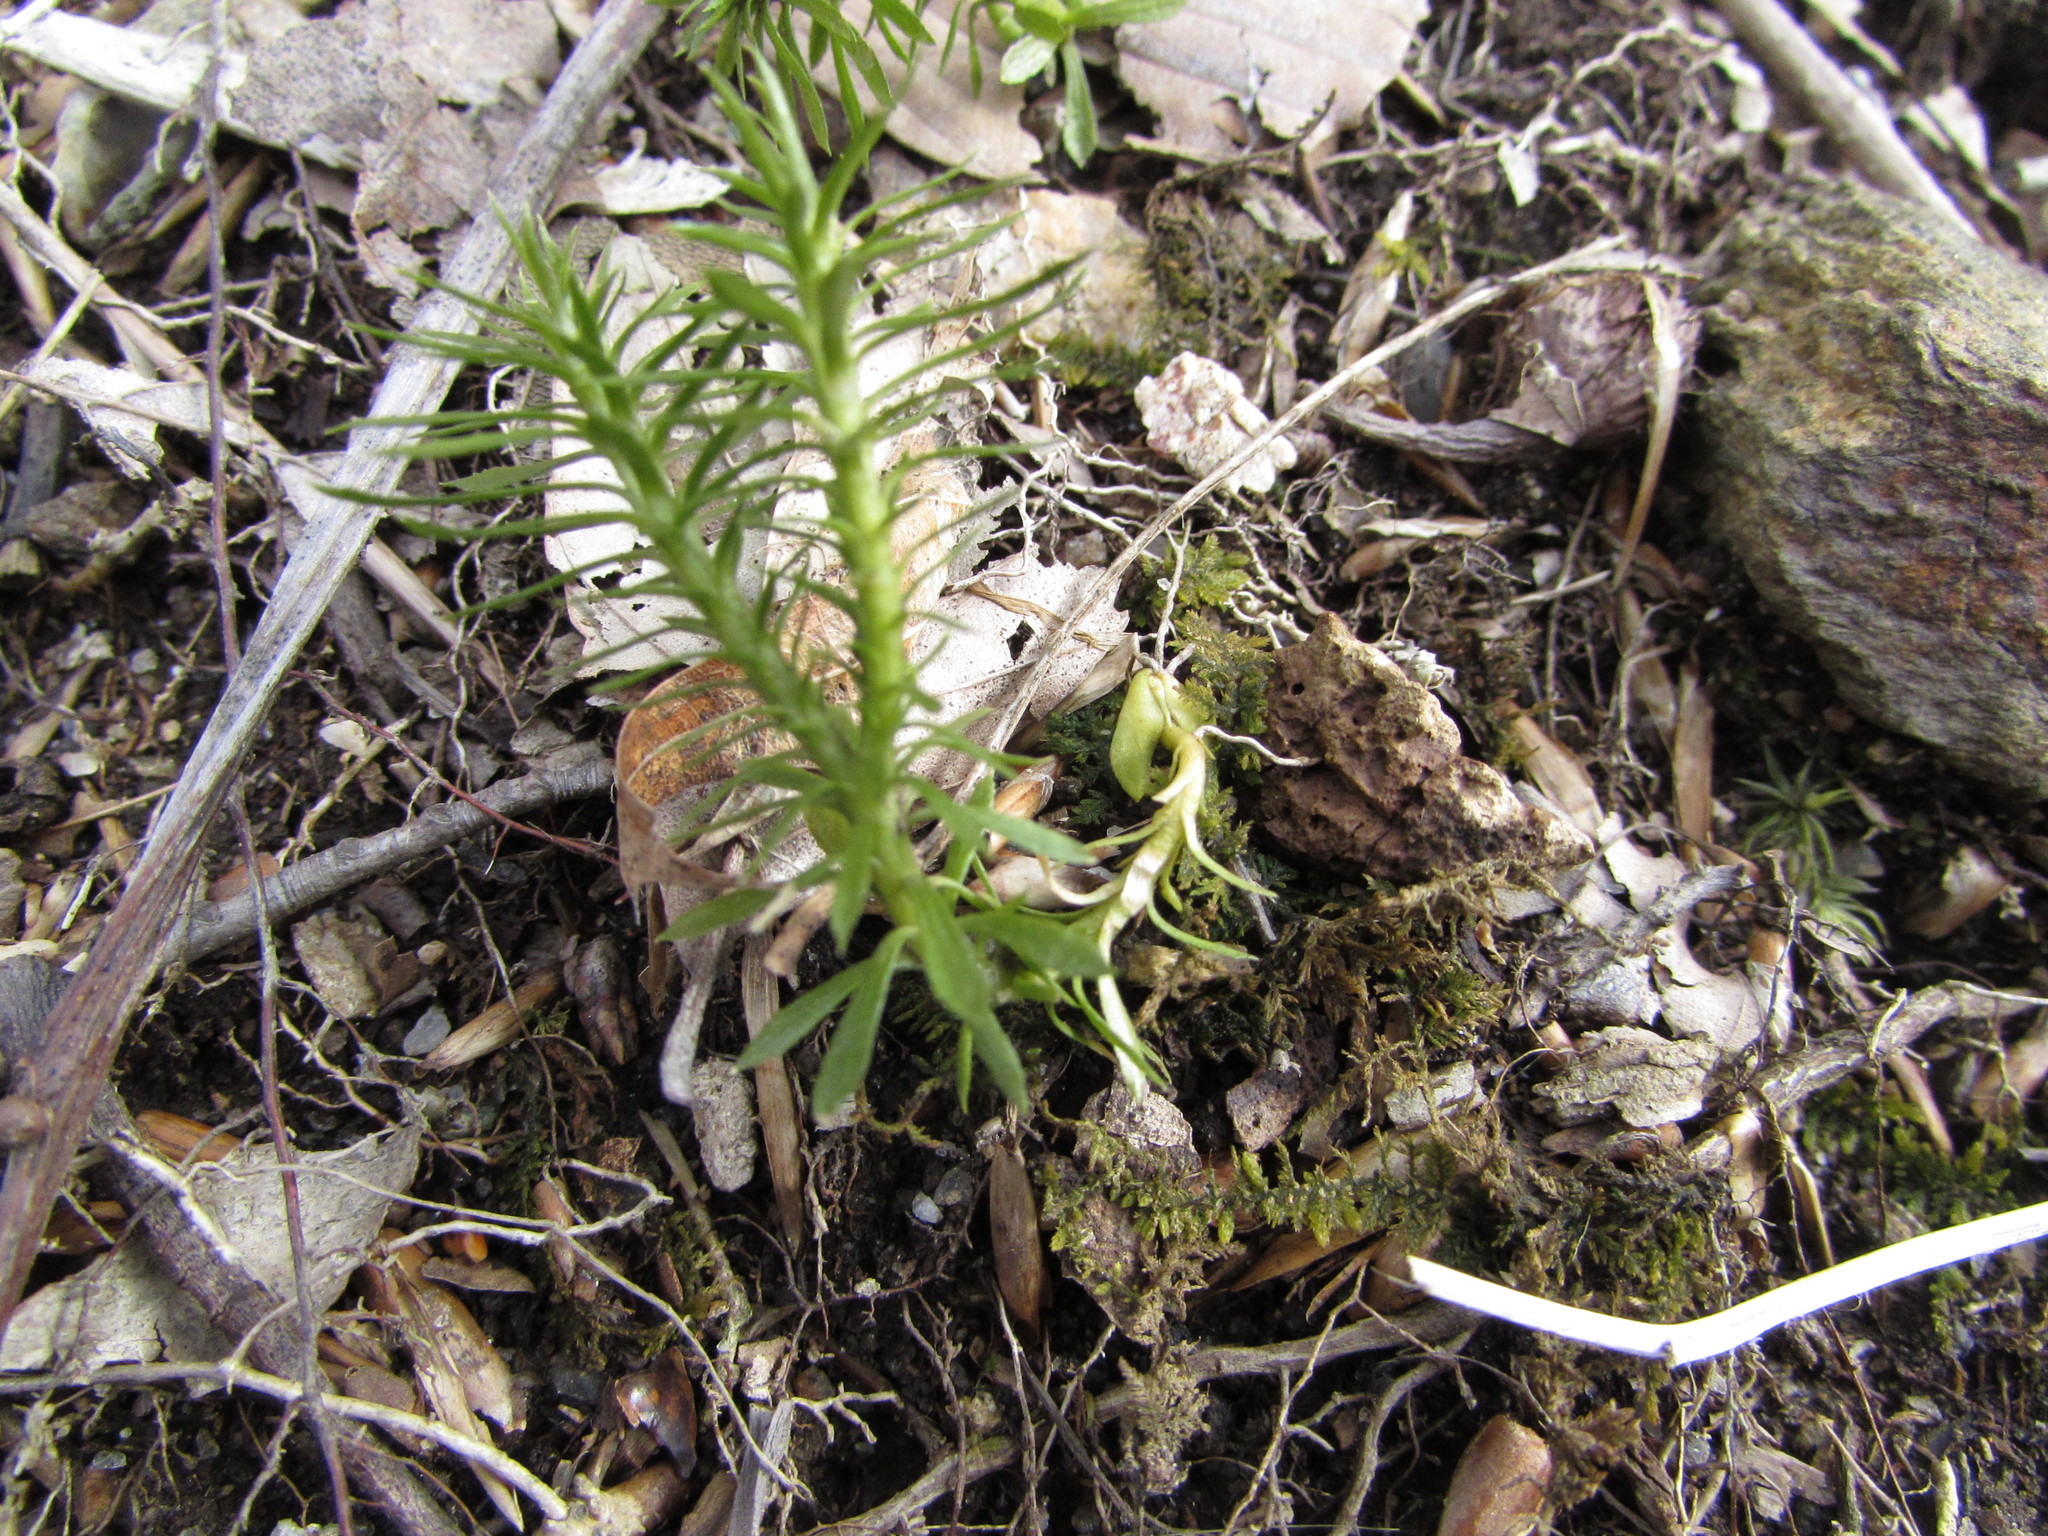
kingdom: Plantae
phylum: Tracheophyta
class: Lycopodiopsida
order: Lycopodiales
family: Lycopodiaceae
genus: Huperzia
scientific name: Huperzia lucidula
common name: Shining clubmoss
